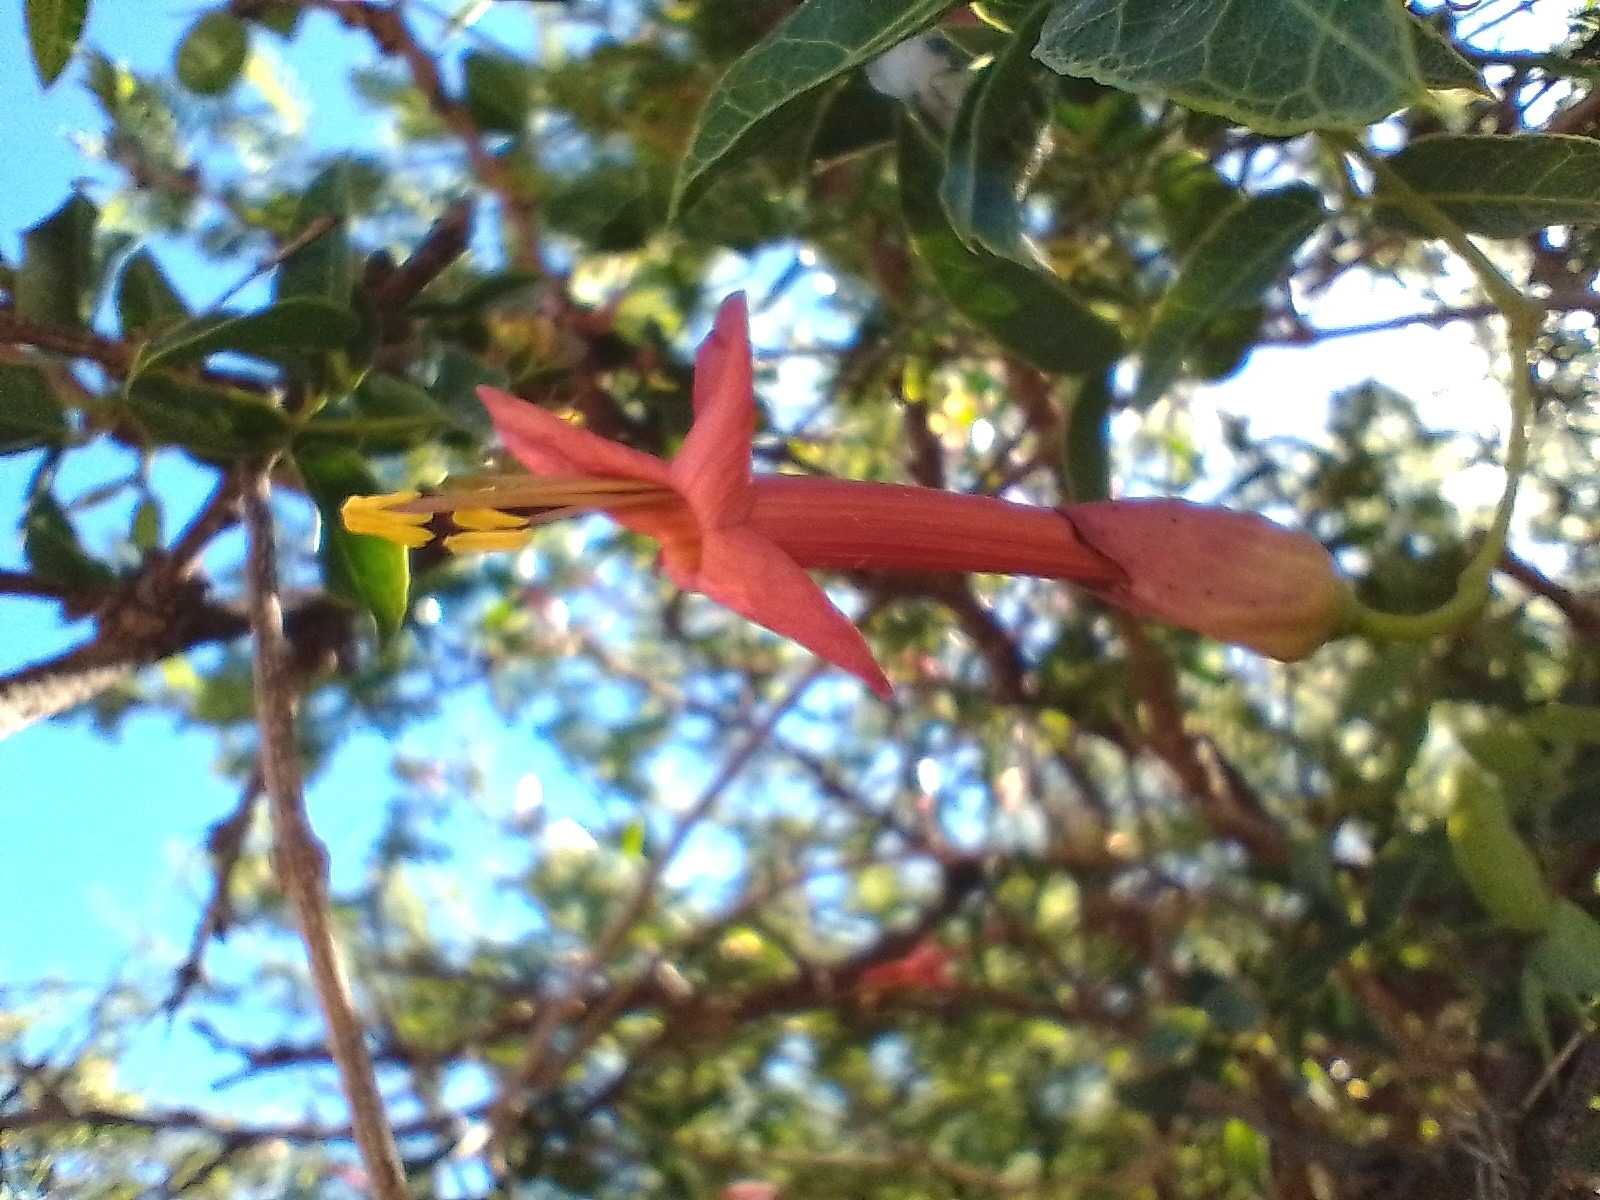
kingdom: Plantae
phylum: Tracheophyta
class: Magnoliopsida
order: Lamiales
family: Bignoniaceae
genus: Dolichandra
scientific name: Dolichandra cynanchoides
